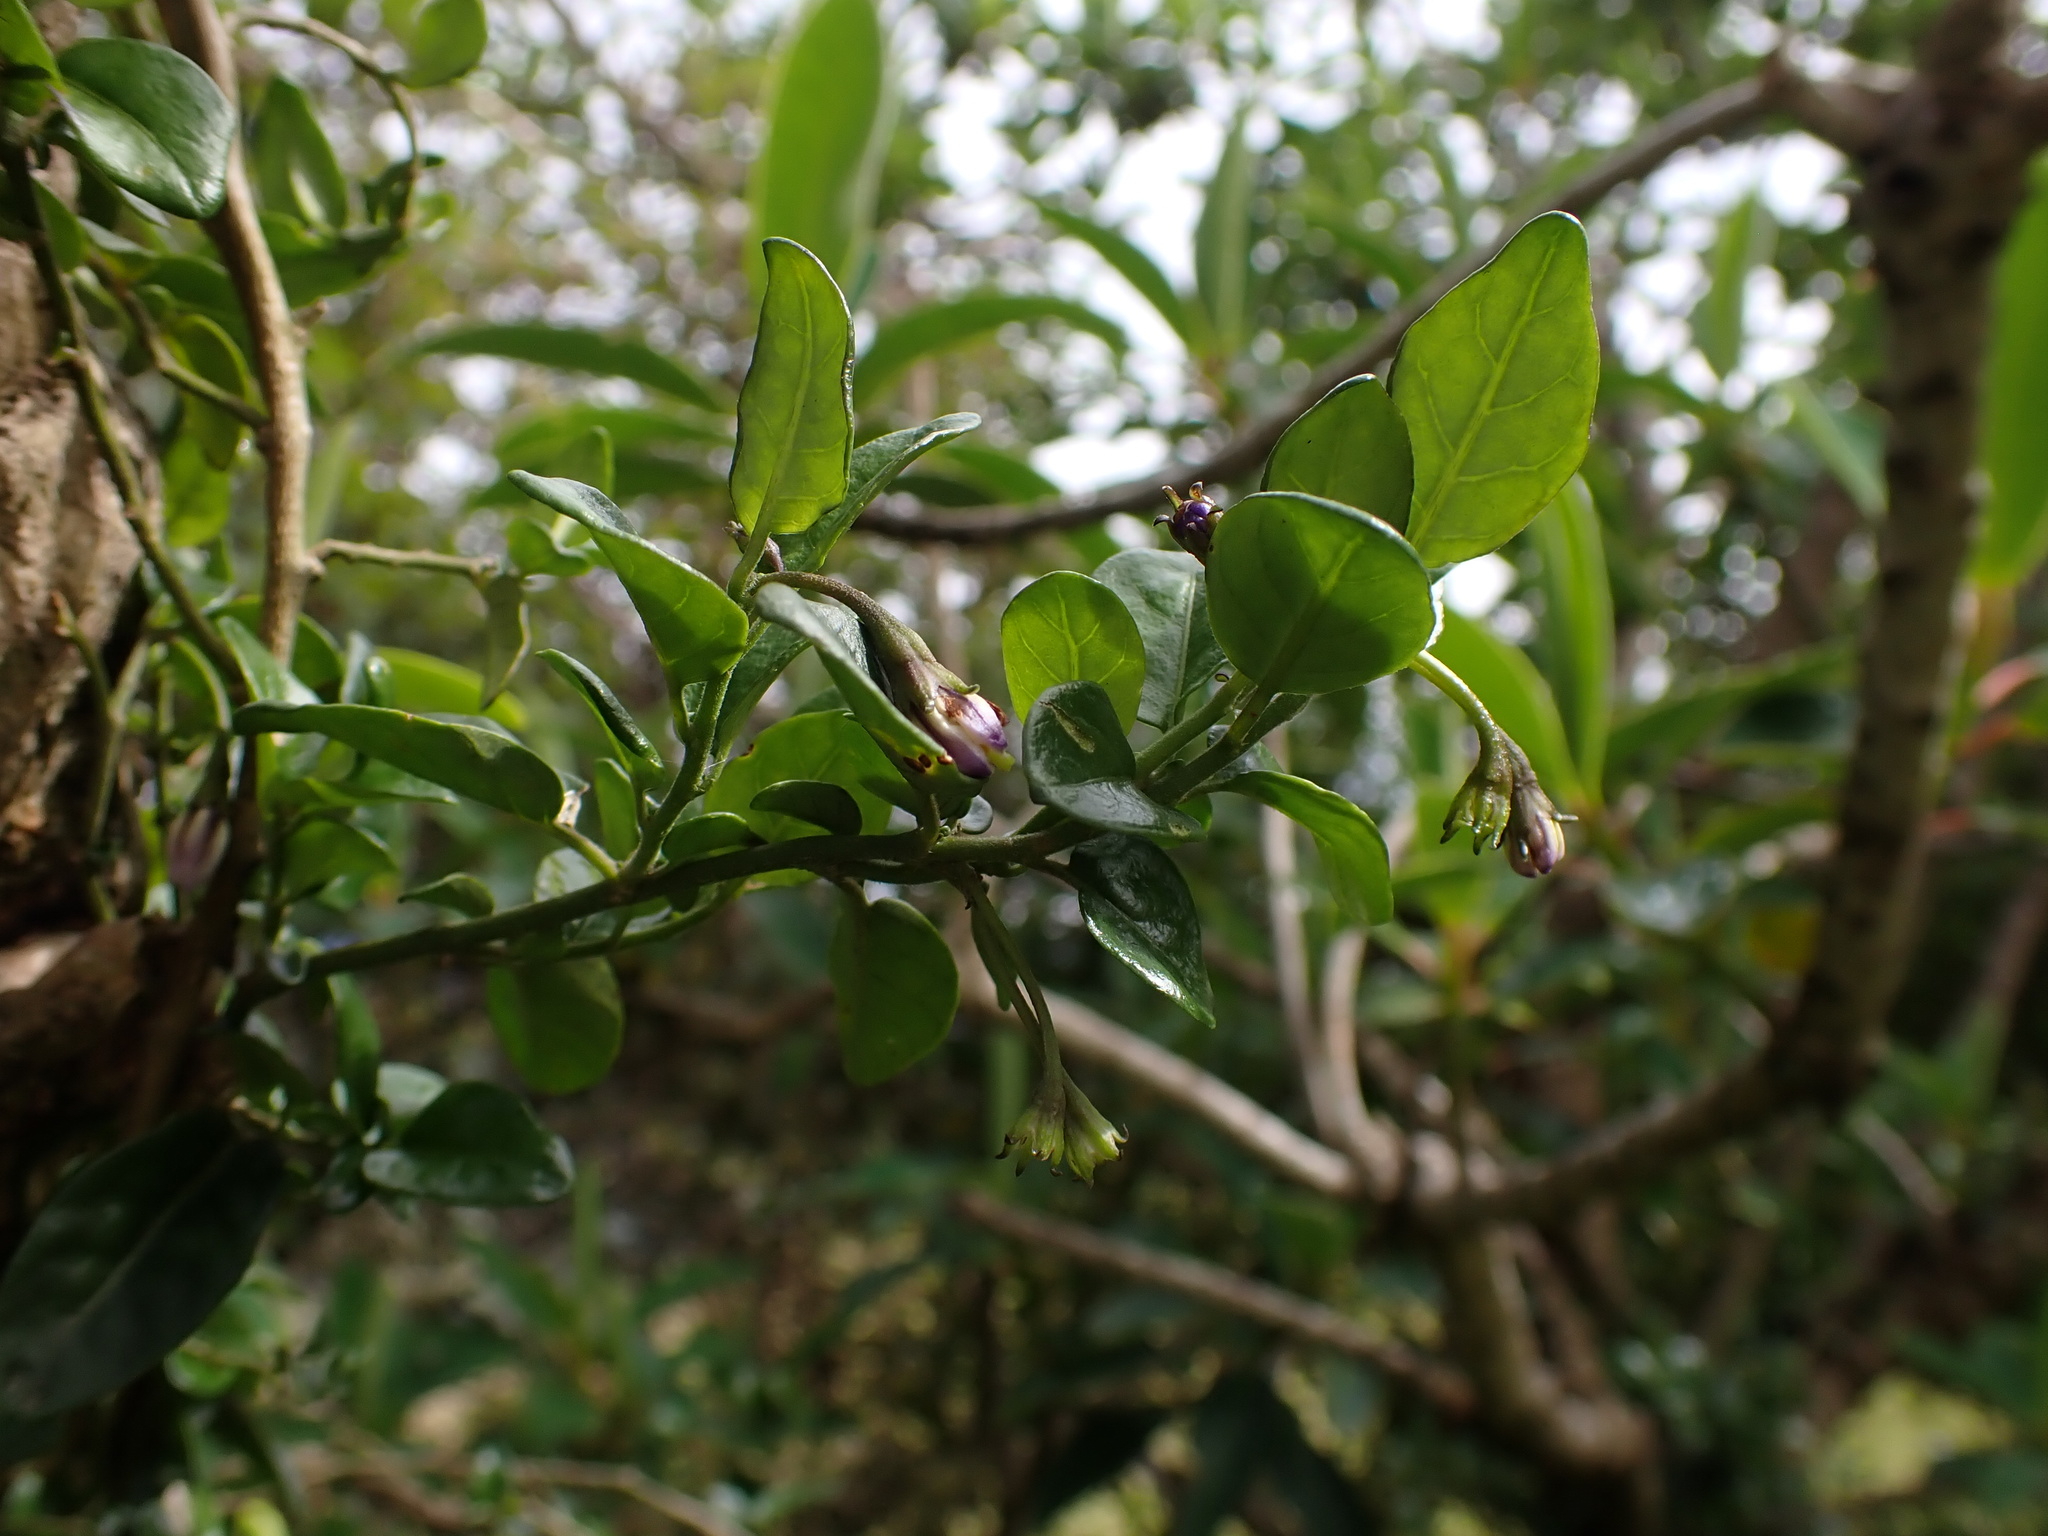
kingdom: Plantae
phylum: Tracheophyta
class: Magnoliopsida
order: Solanales
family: Solanaceae
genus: Solanum
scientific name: Solanum brevifolium
